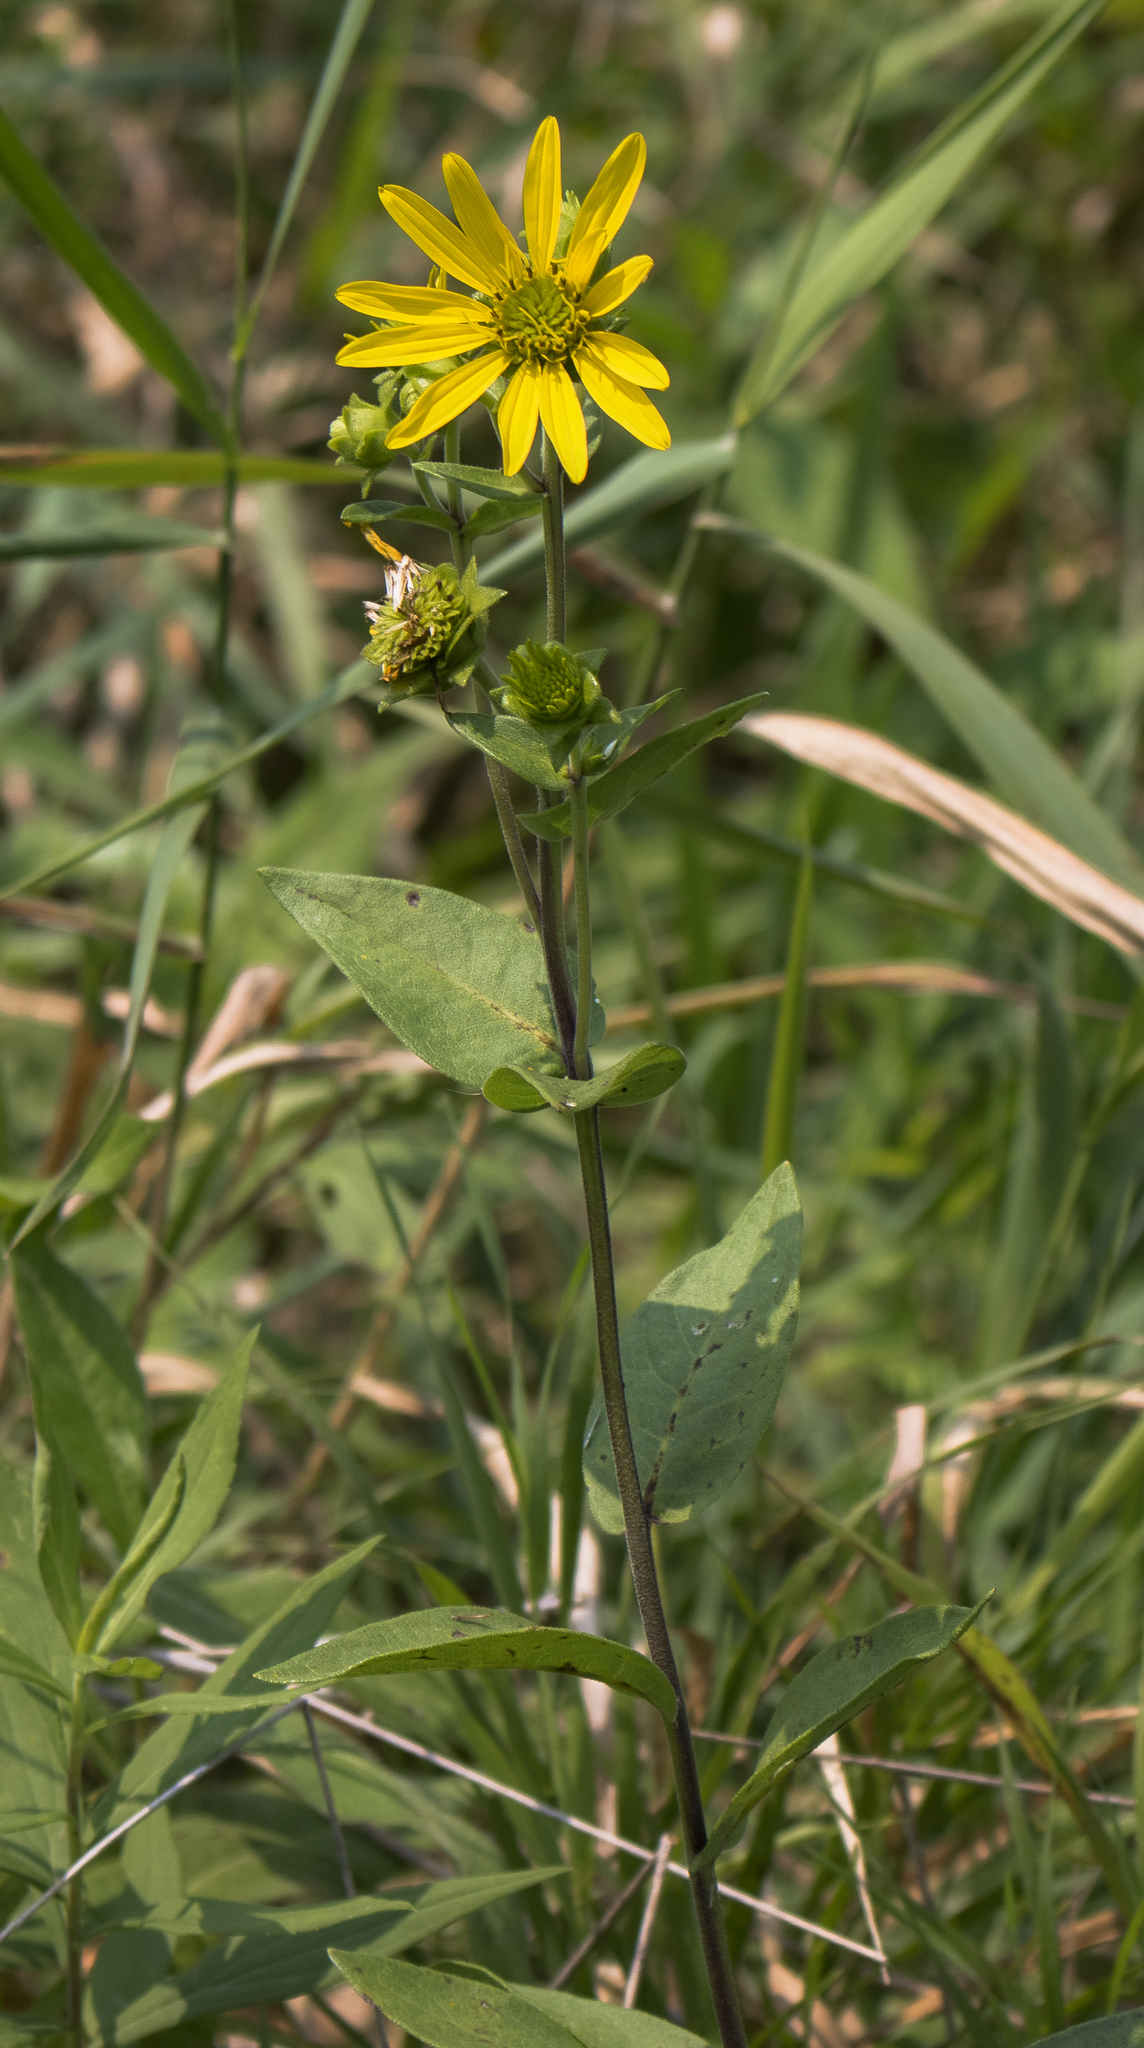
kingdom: Plantae
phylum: Tracheophyta
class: Magnoliopsida
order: Asterales
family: Asteraceae
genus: Silphium
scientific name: Silphium integrifolium
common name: Whole-leaf rosinweed
